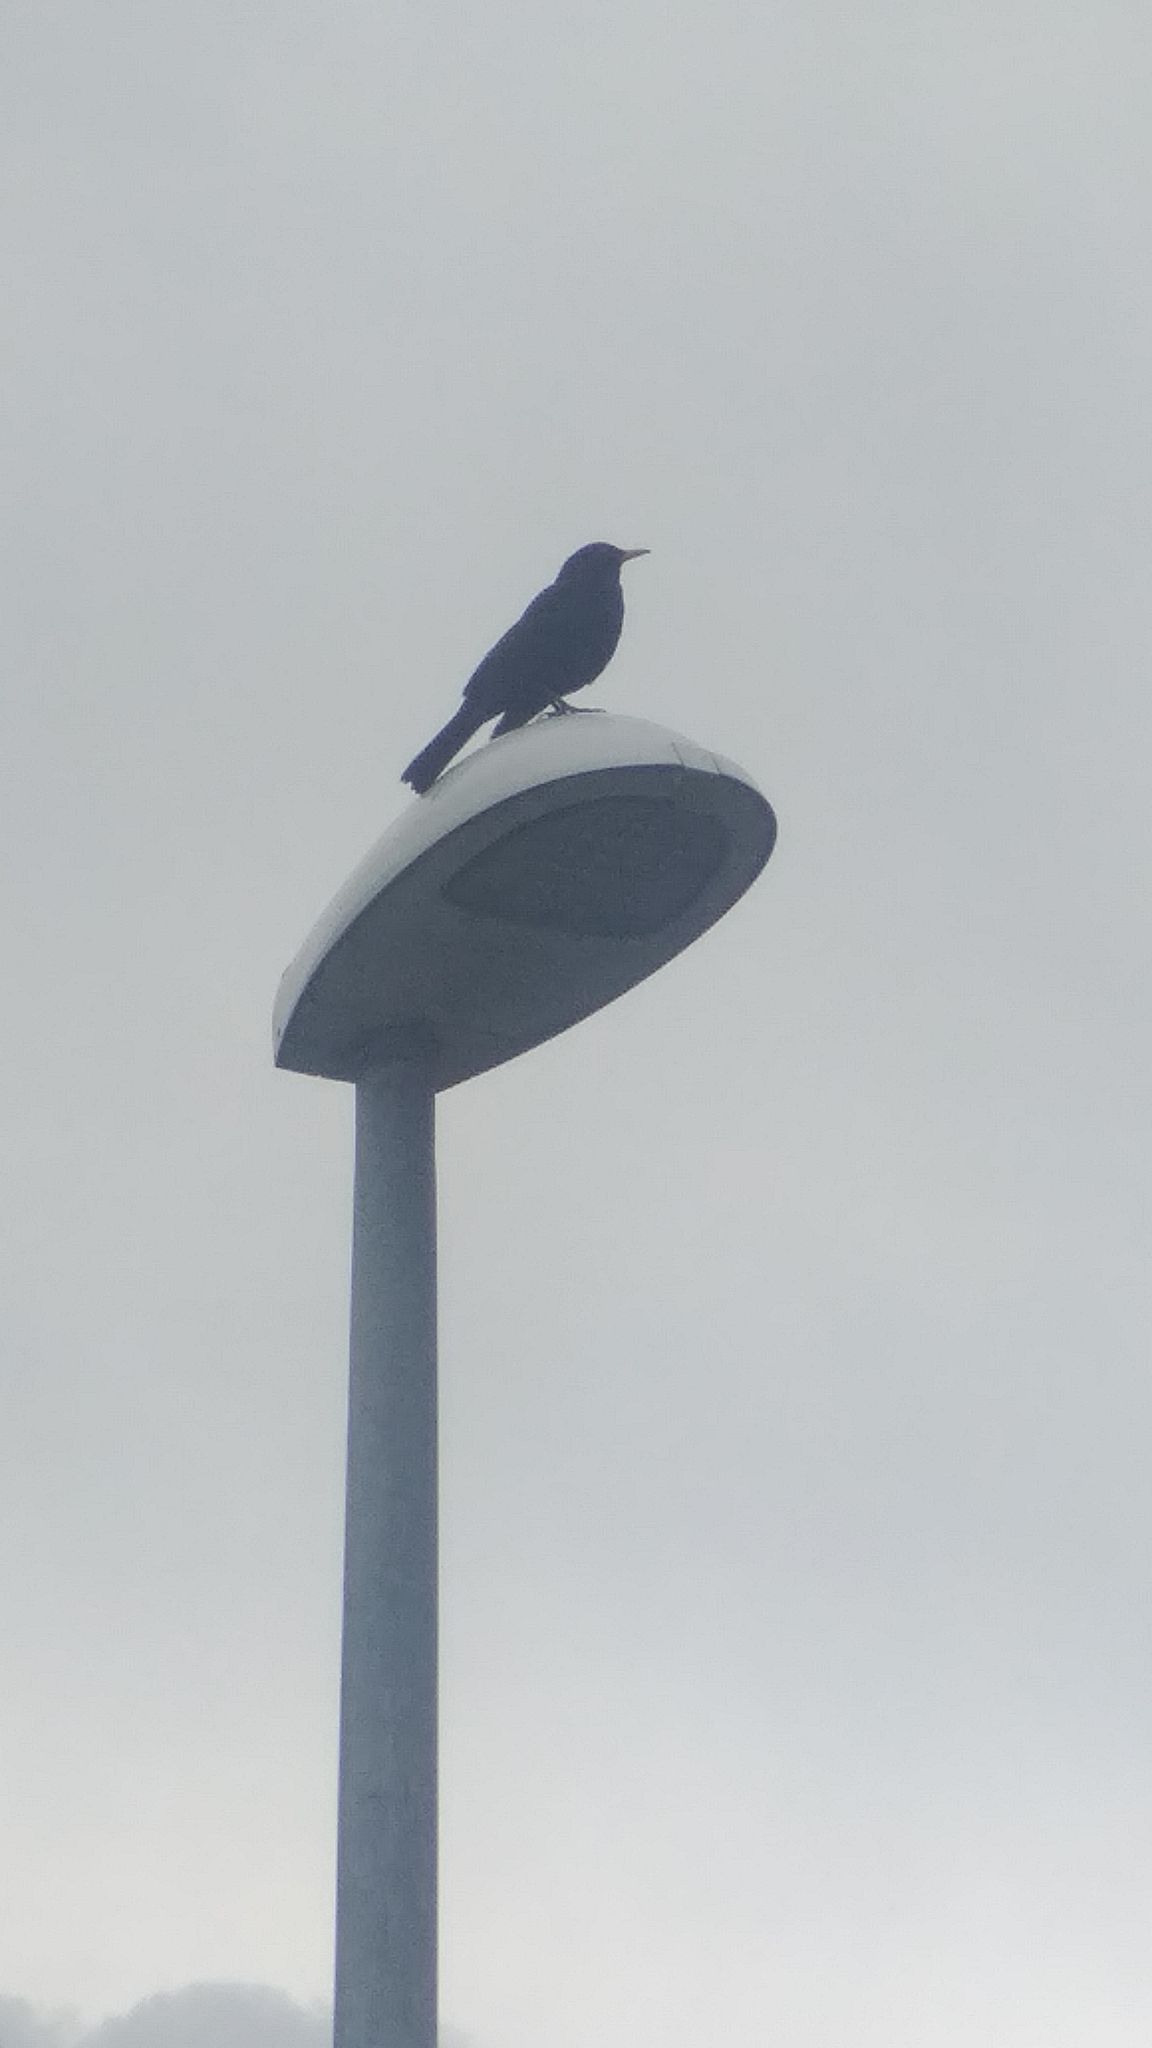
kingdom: Animalia
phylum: Chordata
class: Aves
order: Passeriformes
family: Turdidae
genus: Turdus
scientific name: Turdus merula
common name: Common blackbird
